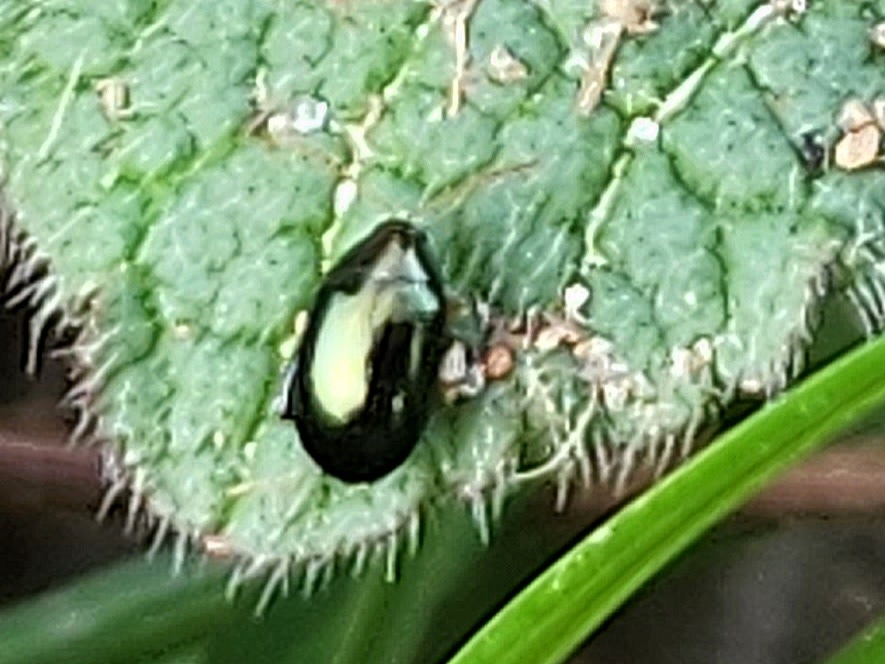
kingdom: Animalia
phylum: Arthropoda
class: Insecta
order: Coleoptera
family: Chrysomelidae
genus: Dibolia
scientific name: Dibolia borealis
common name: Northern plantain flea beetle
